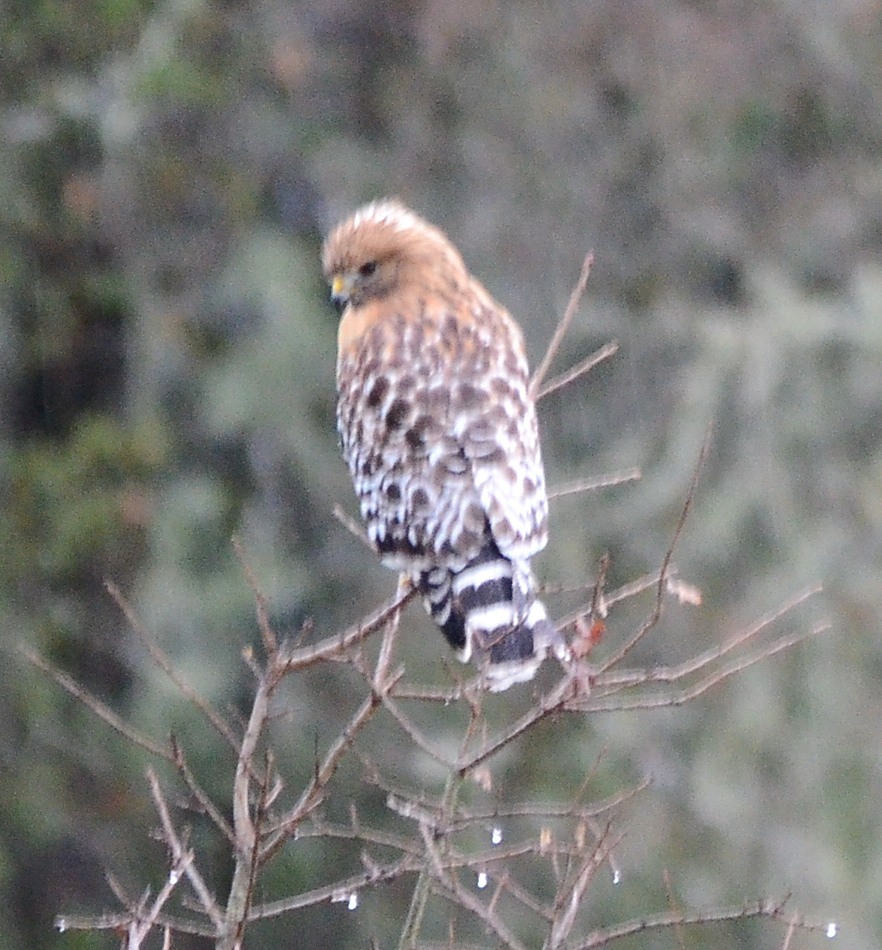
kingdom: Animalia
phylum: Chordata
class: Aves
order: Accipitriformes
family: Accipitridae
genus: Buteo
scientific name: Buteo lineatus
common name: Red-shouldered hawk
